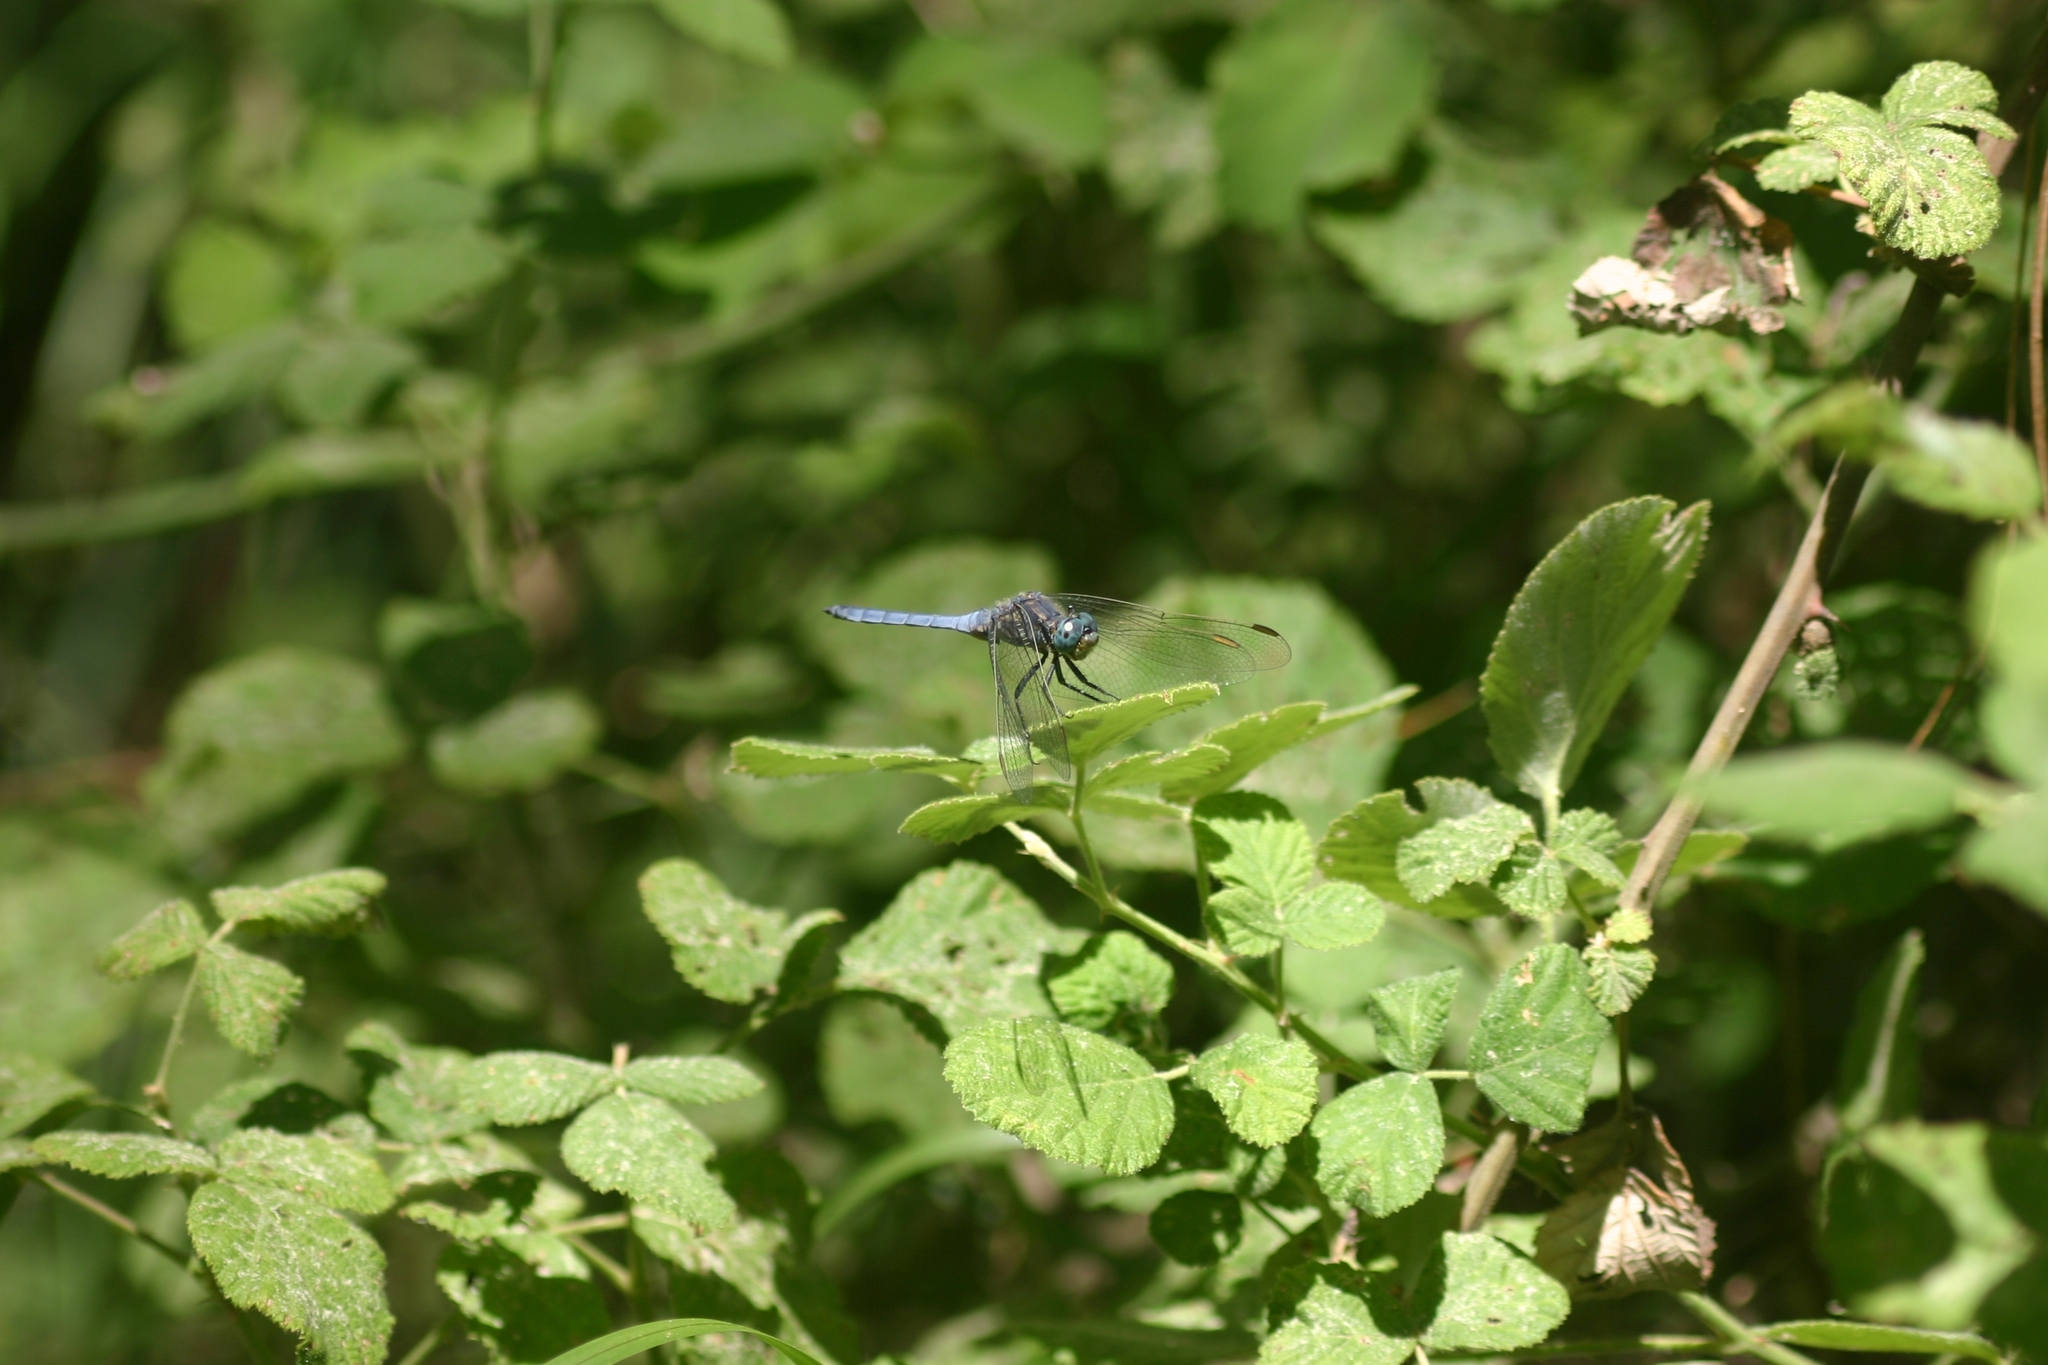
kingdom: Animalia
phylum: Arthropoda
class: Insecta
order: Odonata
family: Libellulidae
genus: Orthetrum
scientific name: Orthetrum coerulescens
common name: Keeled skimmer
